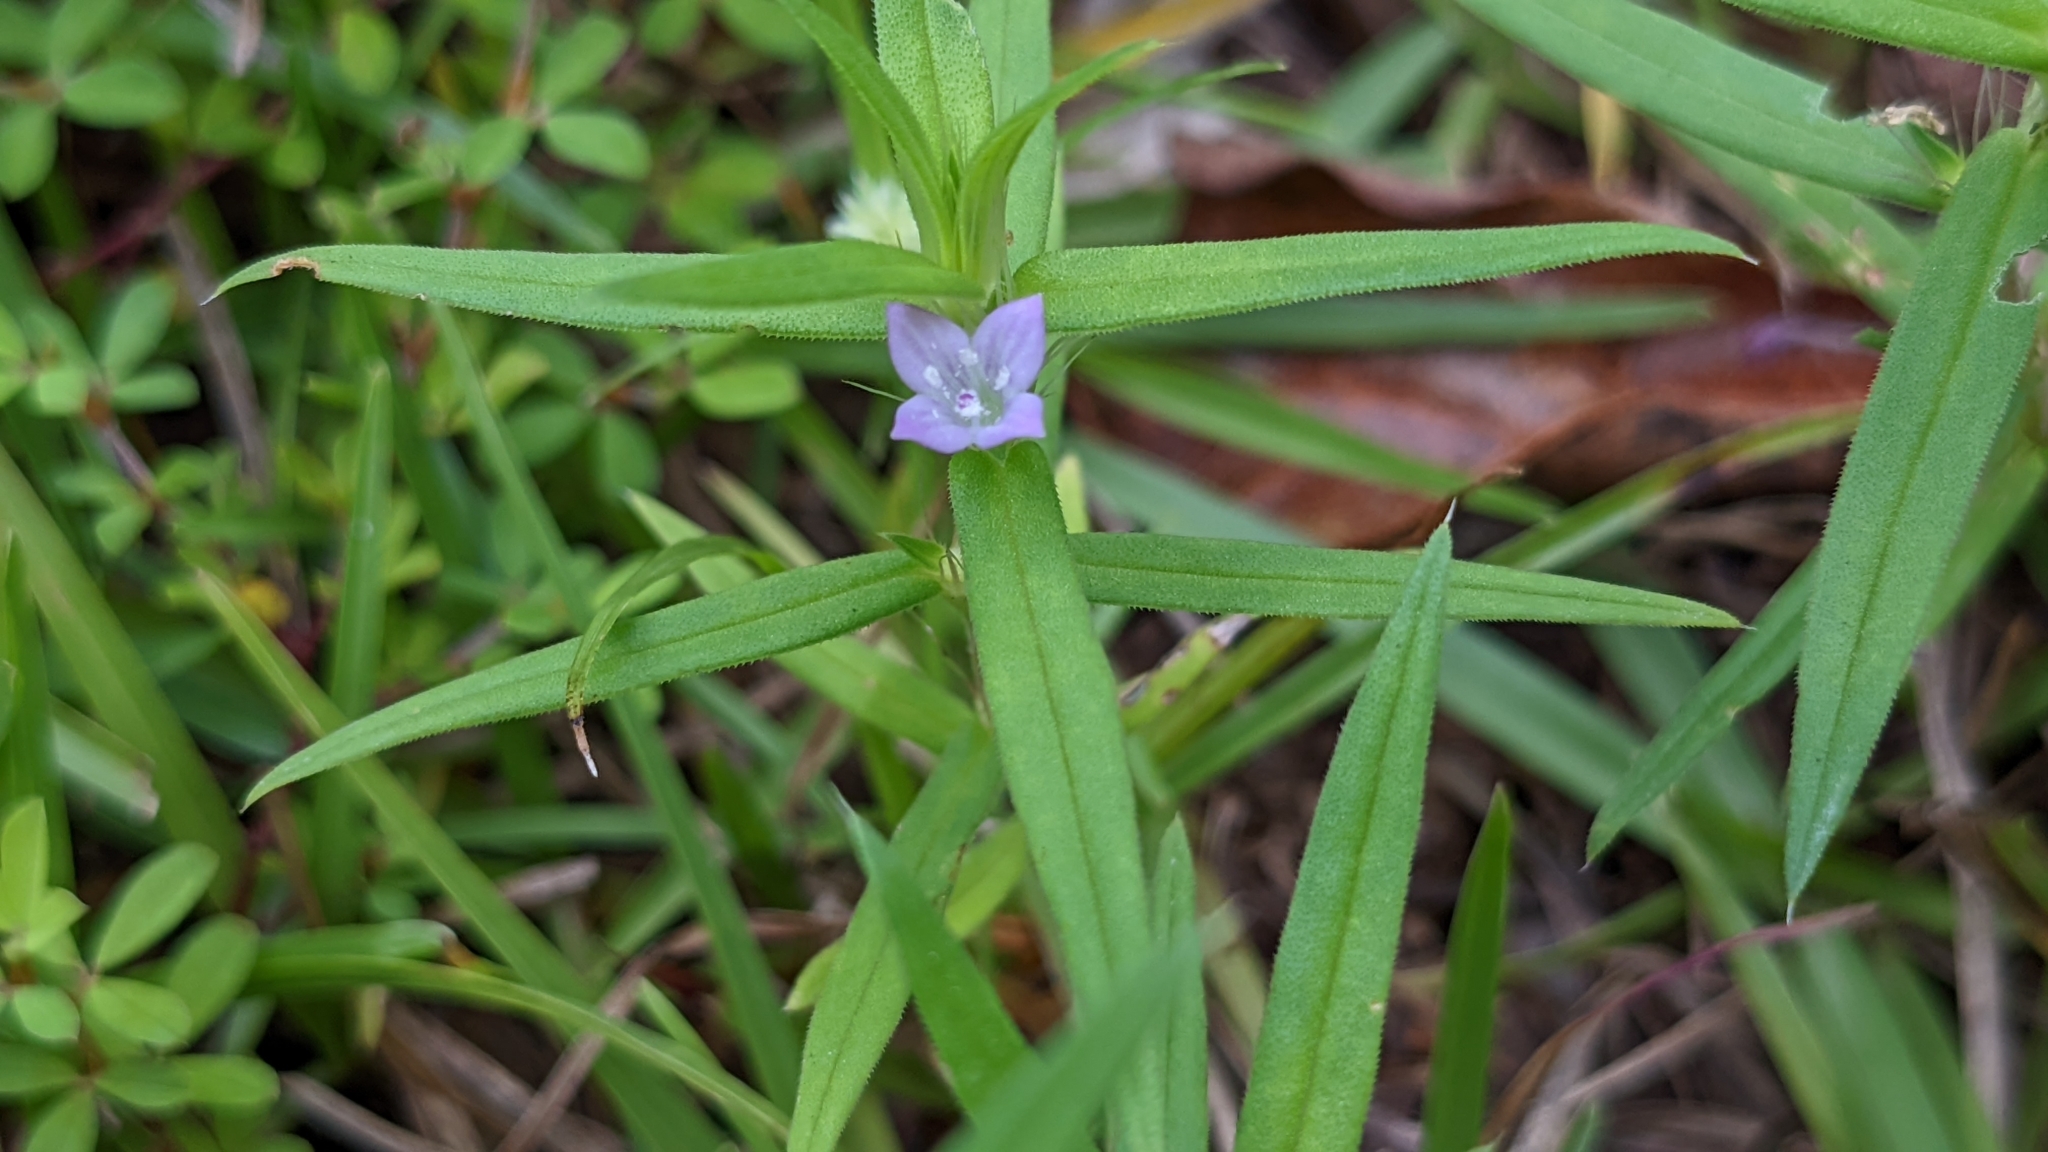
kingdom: Plantae
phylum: Tracheophyta
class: Magnoliopsida
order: Gentianales
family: Rubiaceae
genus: Hexasepalum
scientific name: Hexasepalum teres
